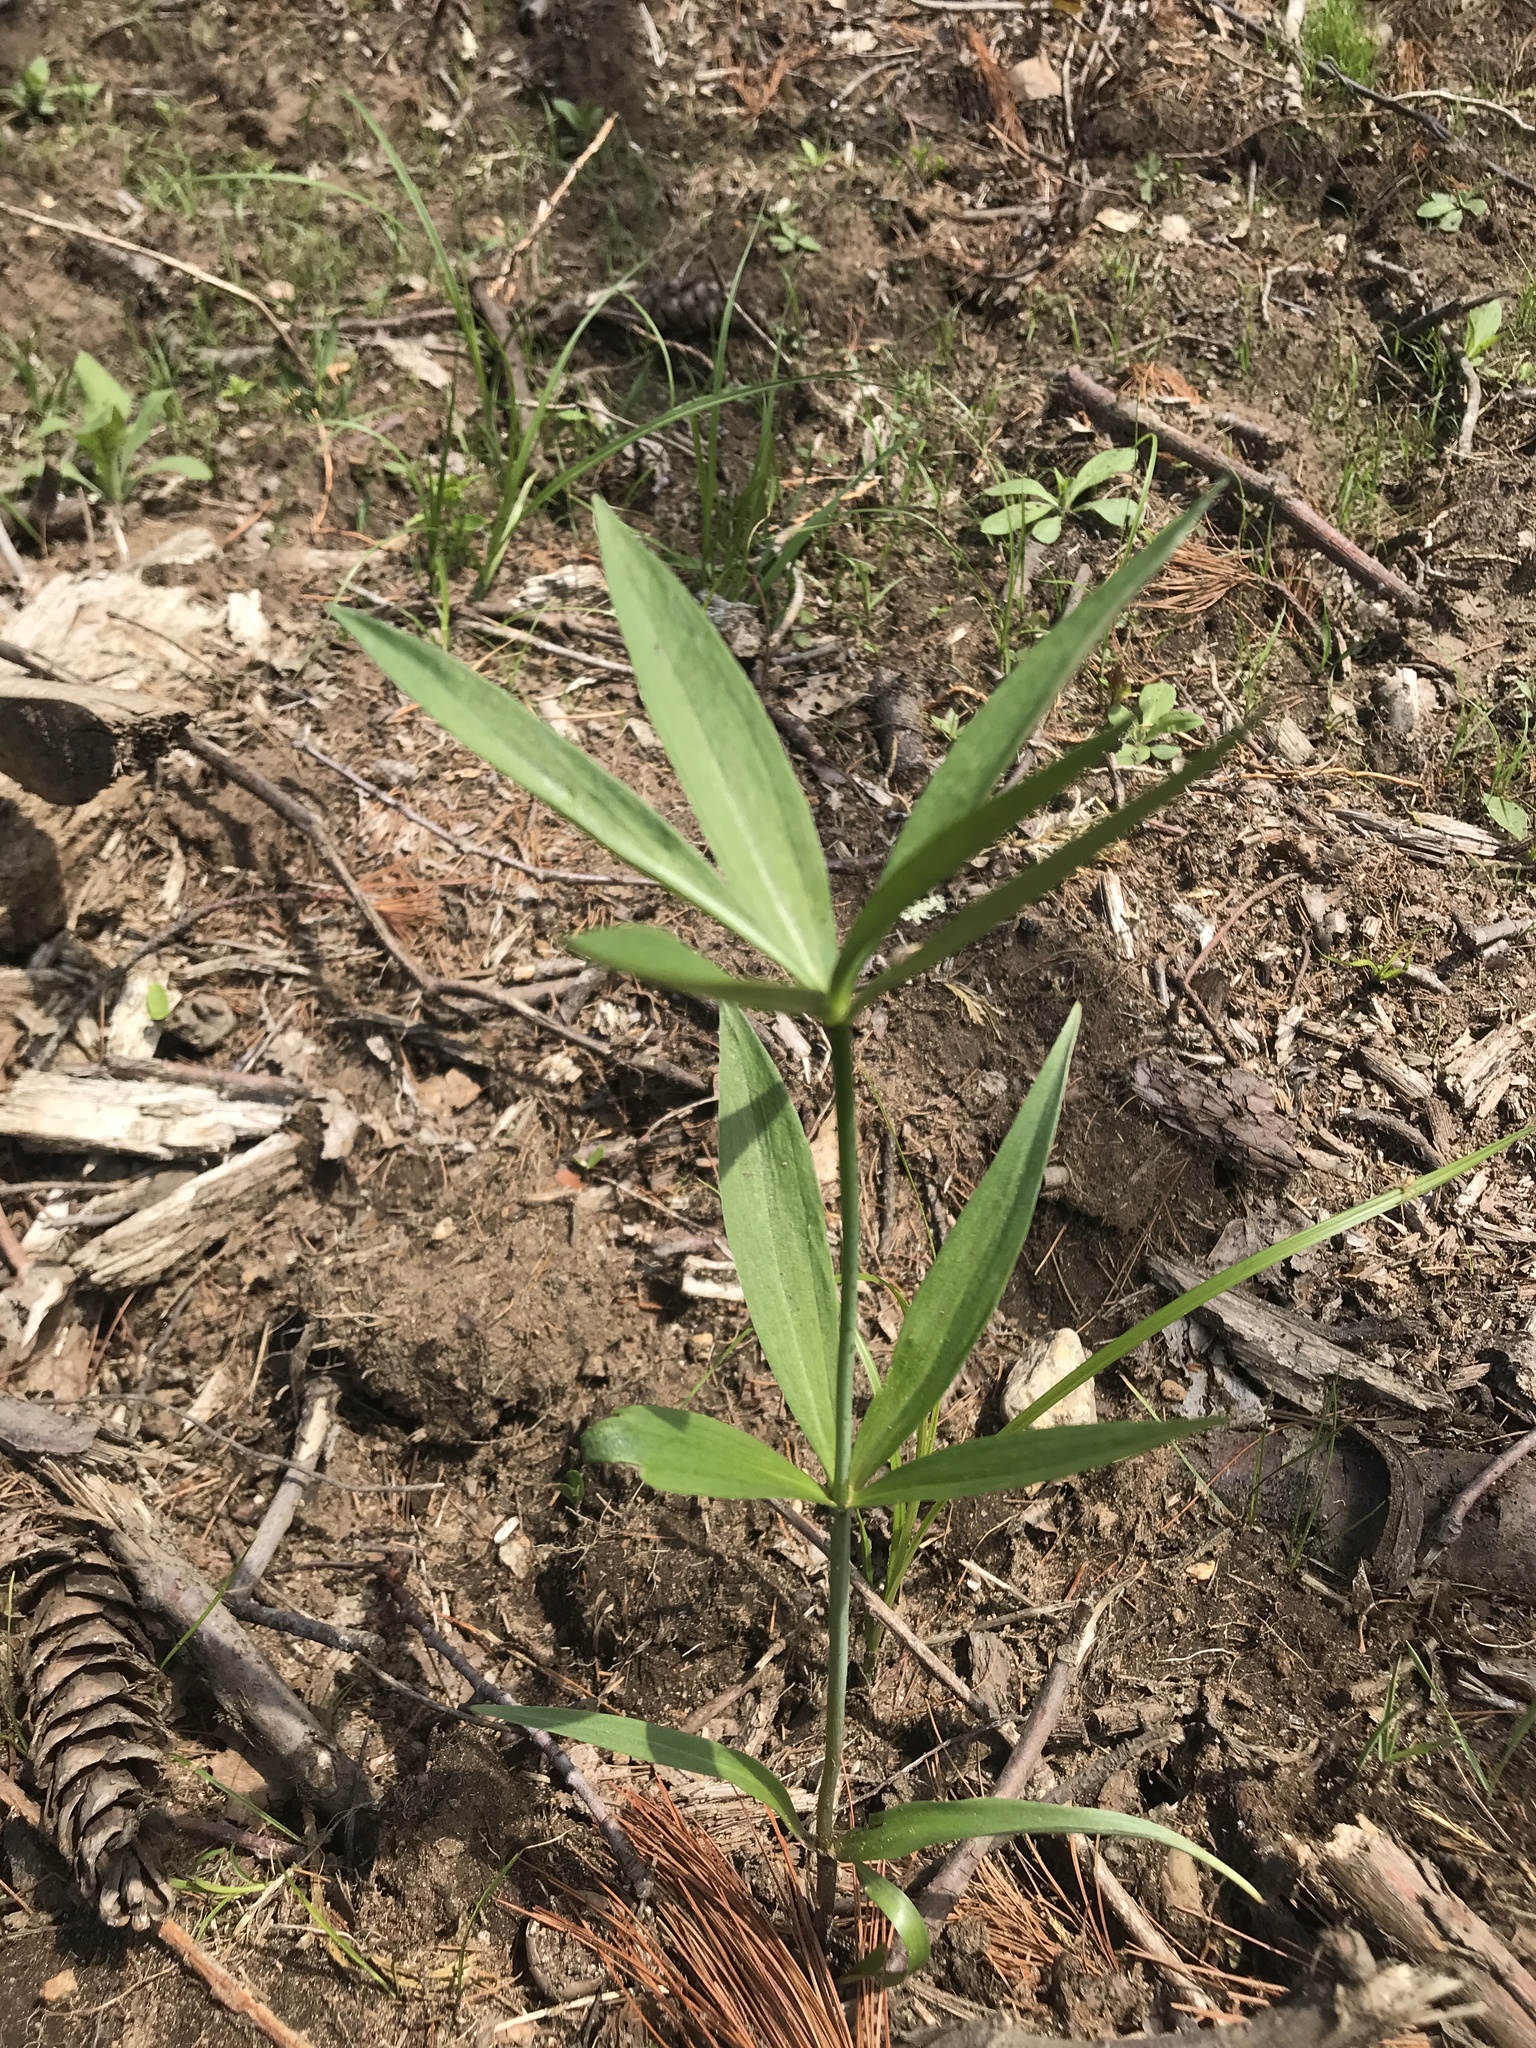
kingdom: Plantae
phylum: Tracheophyta
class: Liliopsida
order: Liliales
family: Liliaceae
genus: Lilium
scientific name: Lilium philadelphicum
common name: Red lily
